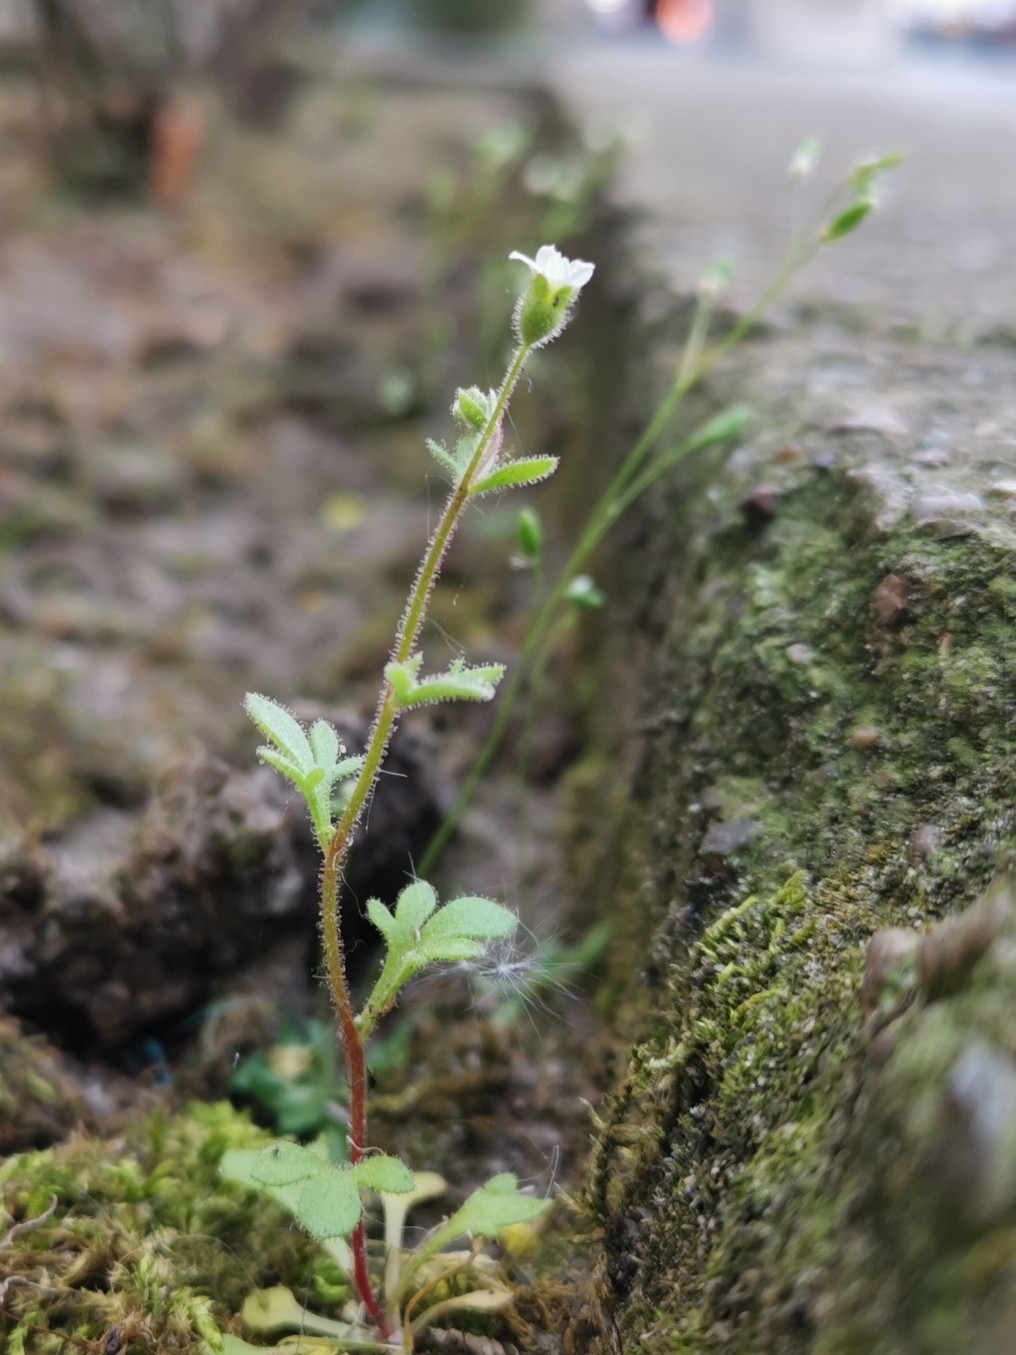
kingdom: Plantae
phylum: Tracheophyta
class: Magnoliopsida
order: Saxifragales
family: Saxifragaceae
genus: Saxifraga
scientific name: Saxifraga tridactylites
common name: Rue-leaved saxifrage
